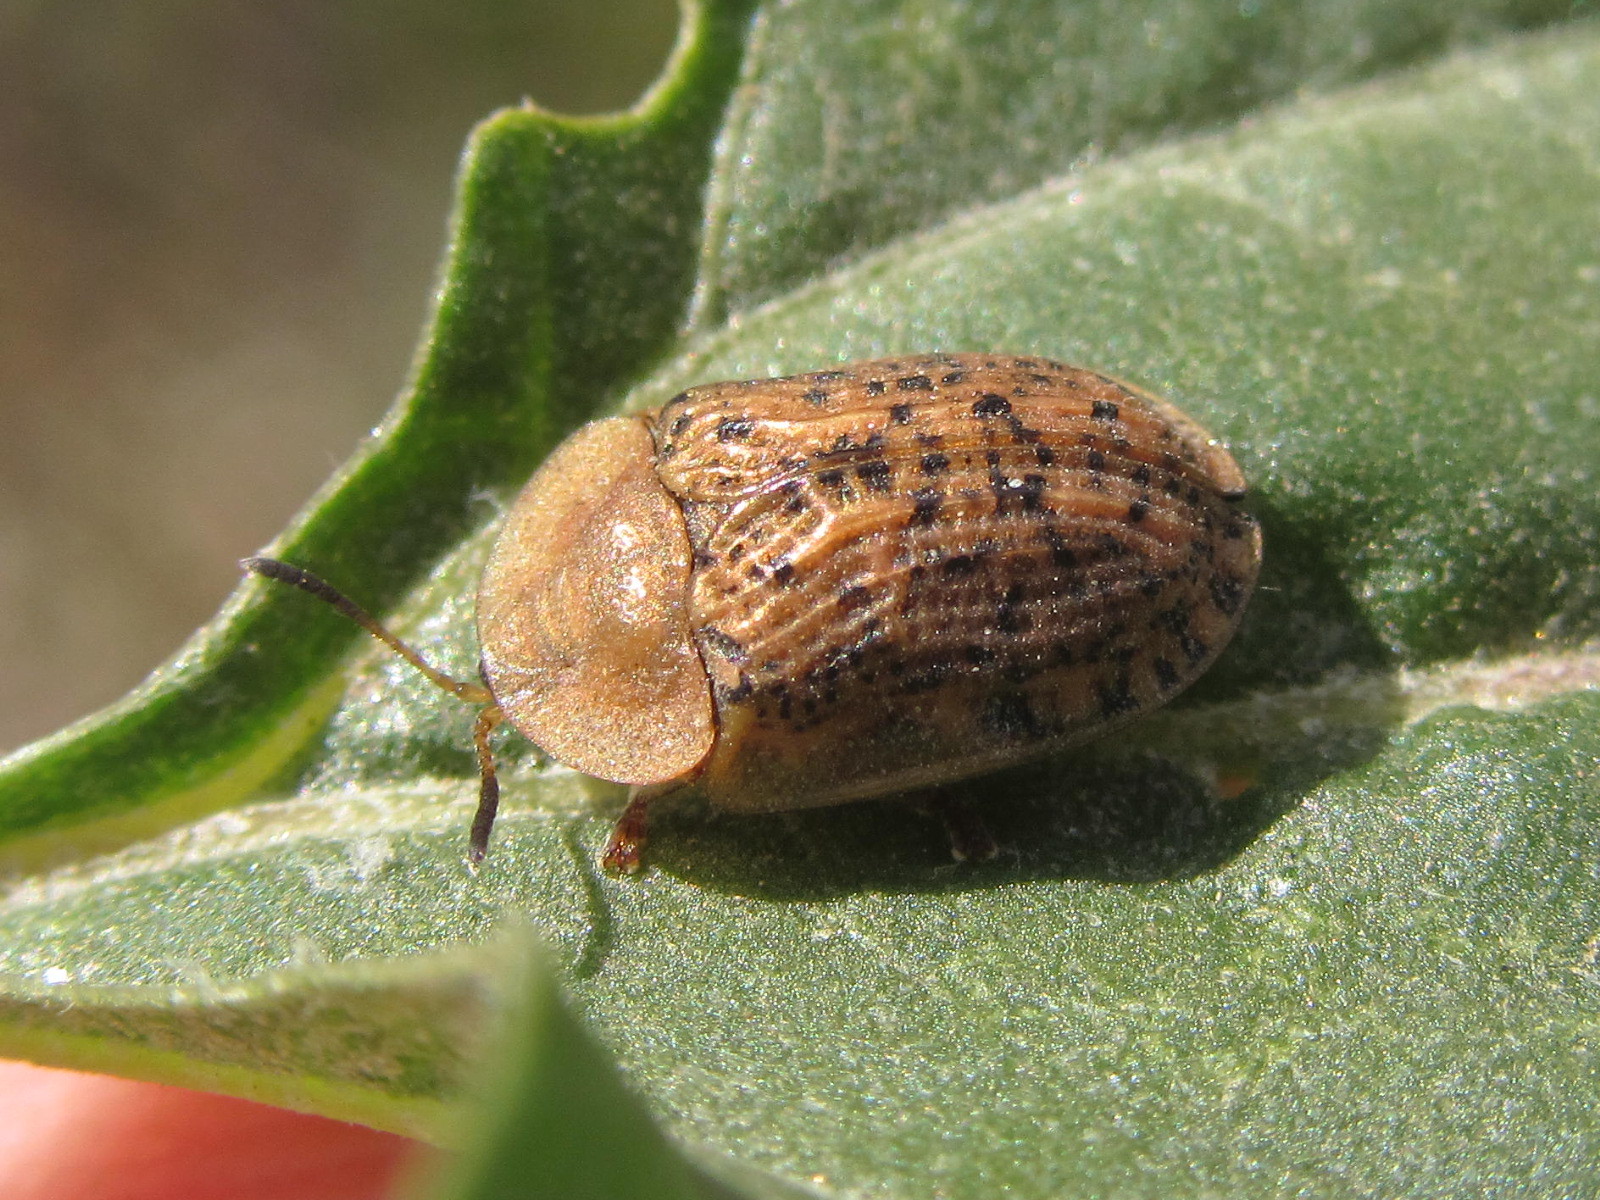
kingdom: Animalia
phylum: Arthropoda
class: Insecta
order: Coleoptera
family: Chrysomelidae
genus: Cassida
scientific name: Cassida nebulosa
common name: Beet tortoise beetle
